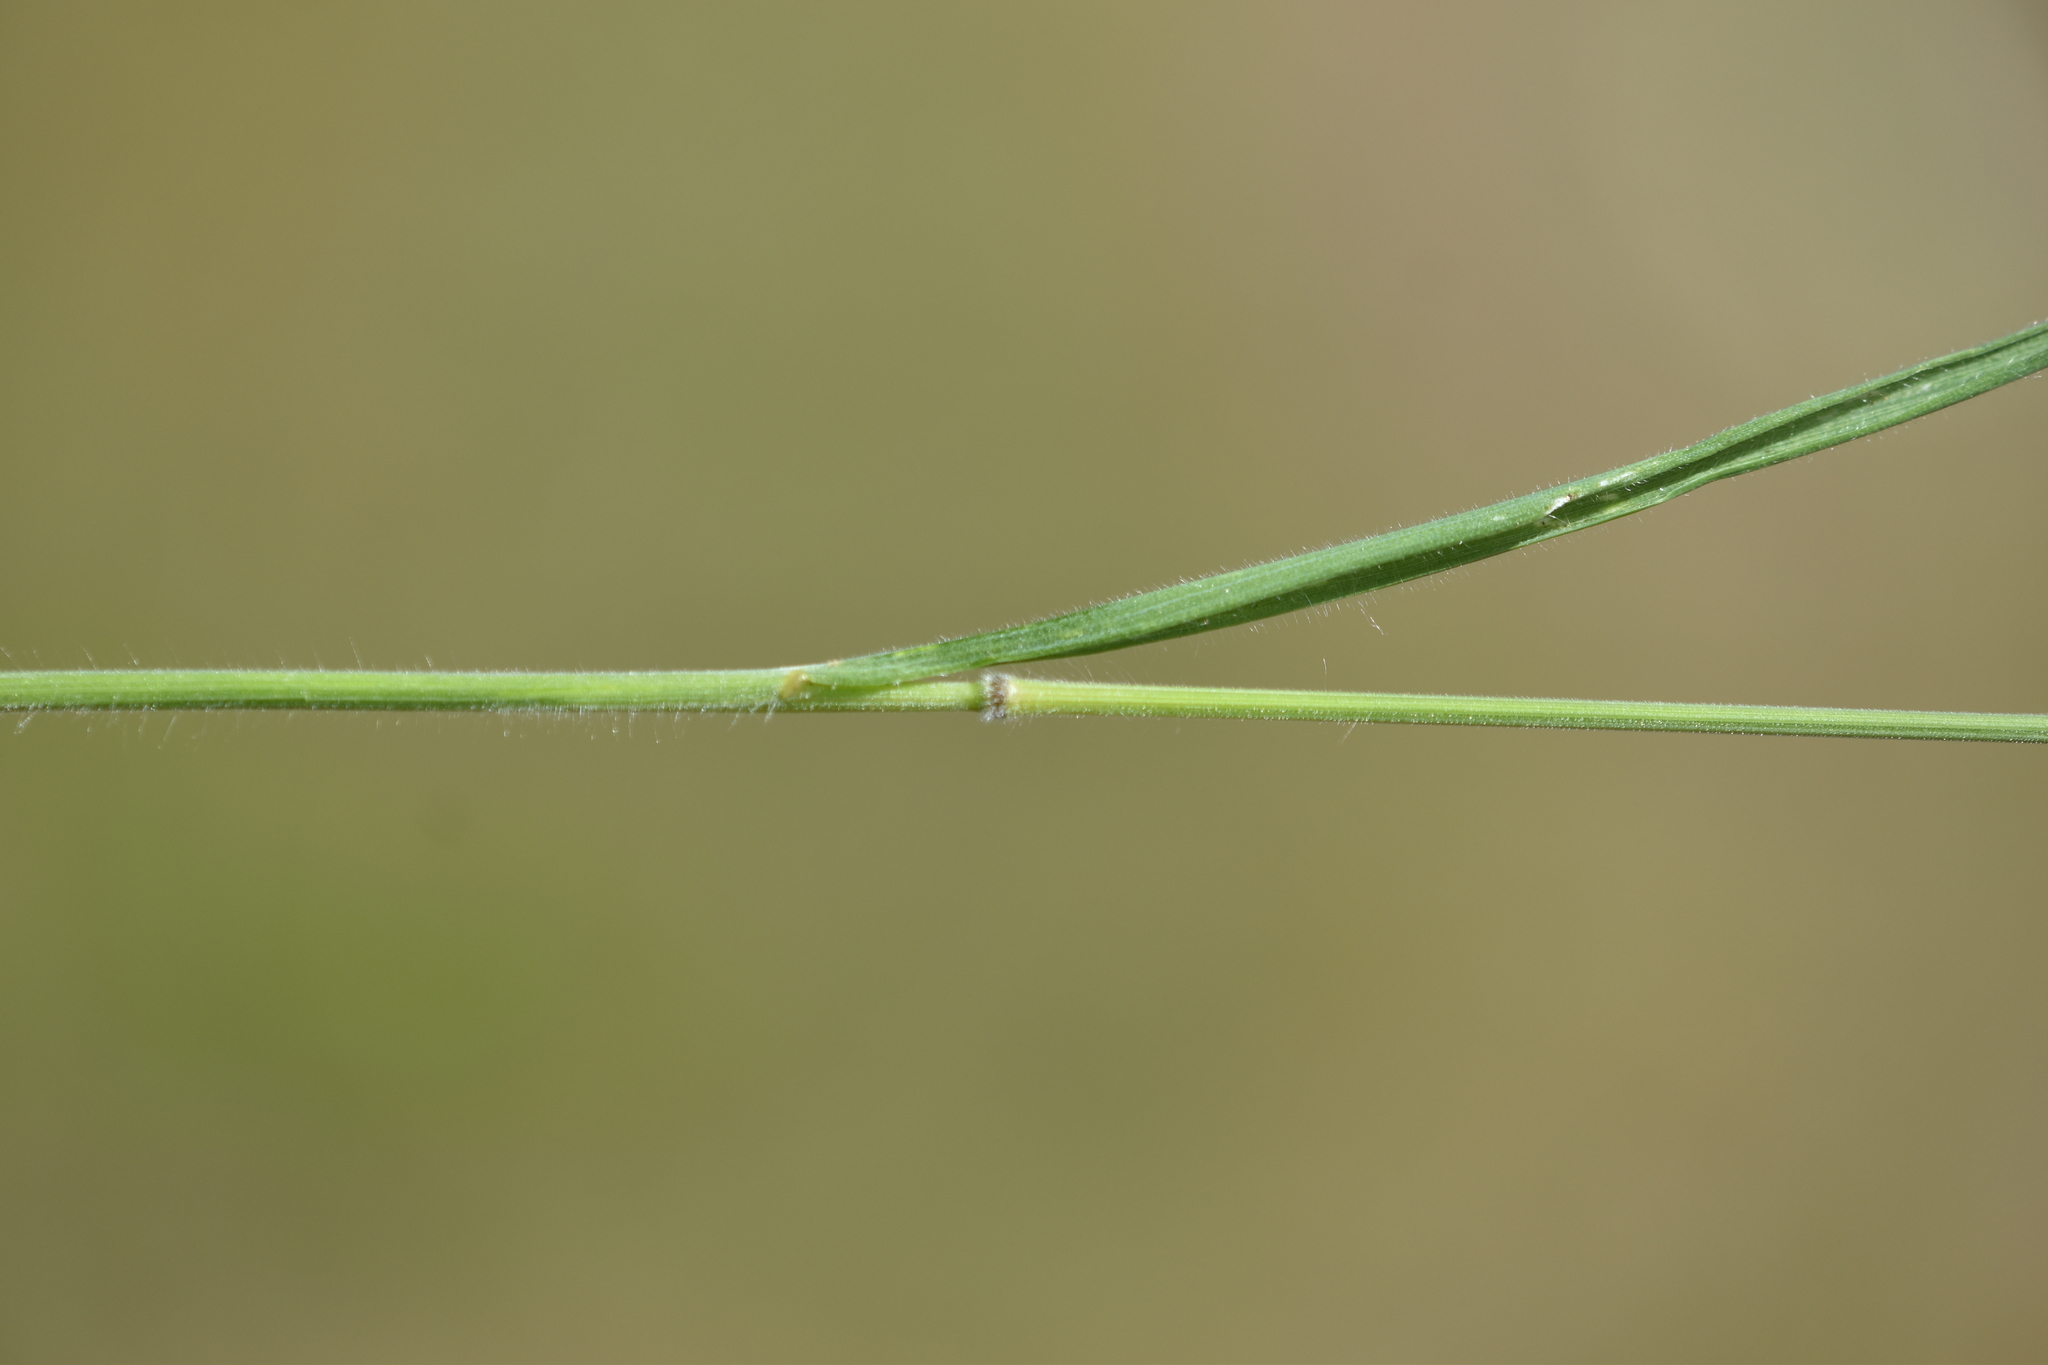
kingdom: Plantae
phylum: Tracheophyta
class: Liliopsida
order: Poales
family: Poaceae
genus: Bromus
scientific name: Bromus hordeaceus
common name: Soft brome
